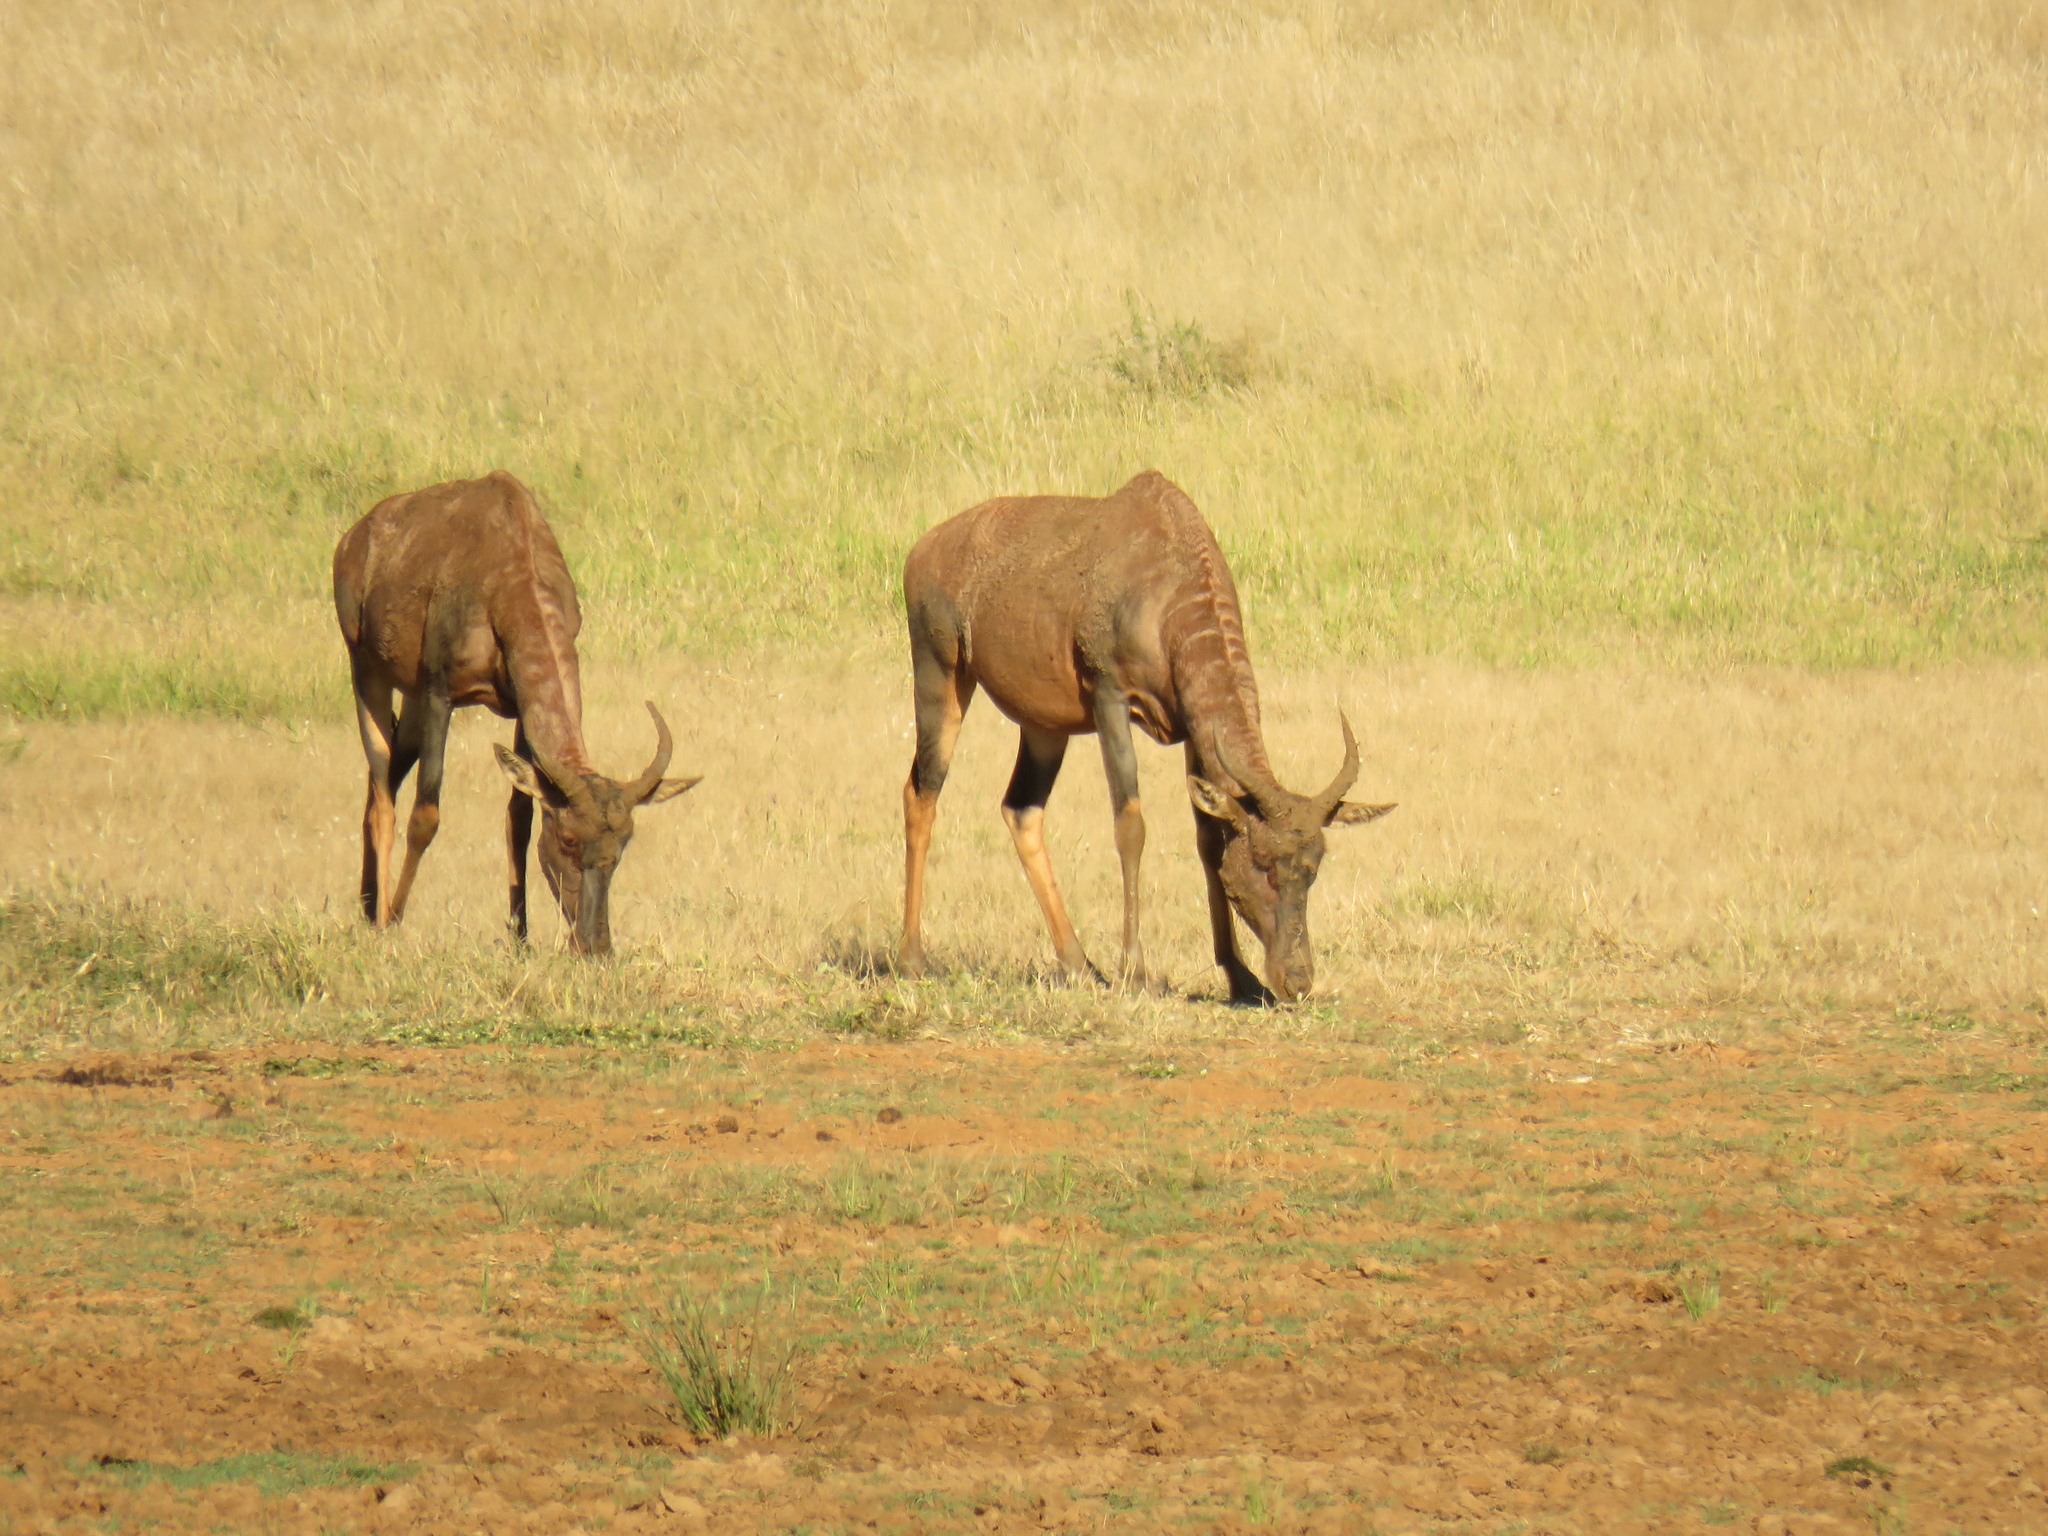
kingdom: Animalia
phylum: Chordata
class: Mammalia
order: Artiodactyla
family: Bovidae
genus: Damaliscus
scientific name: Damaliscus lunatus
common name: Common tsessebe
